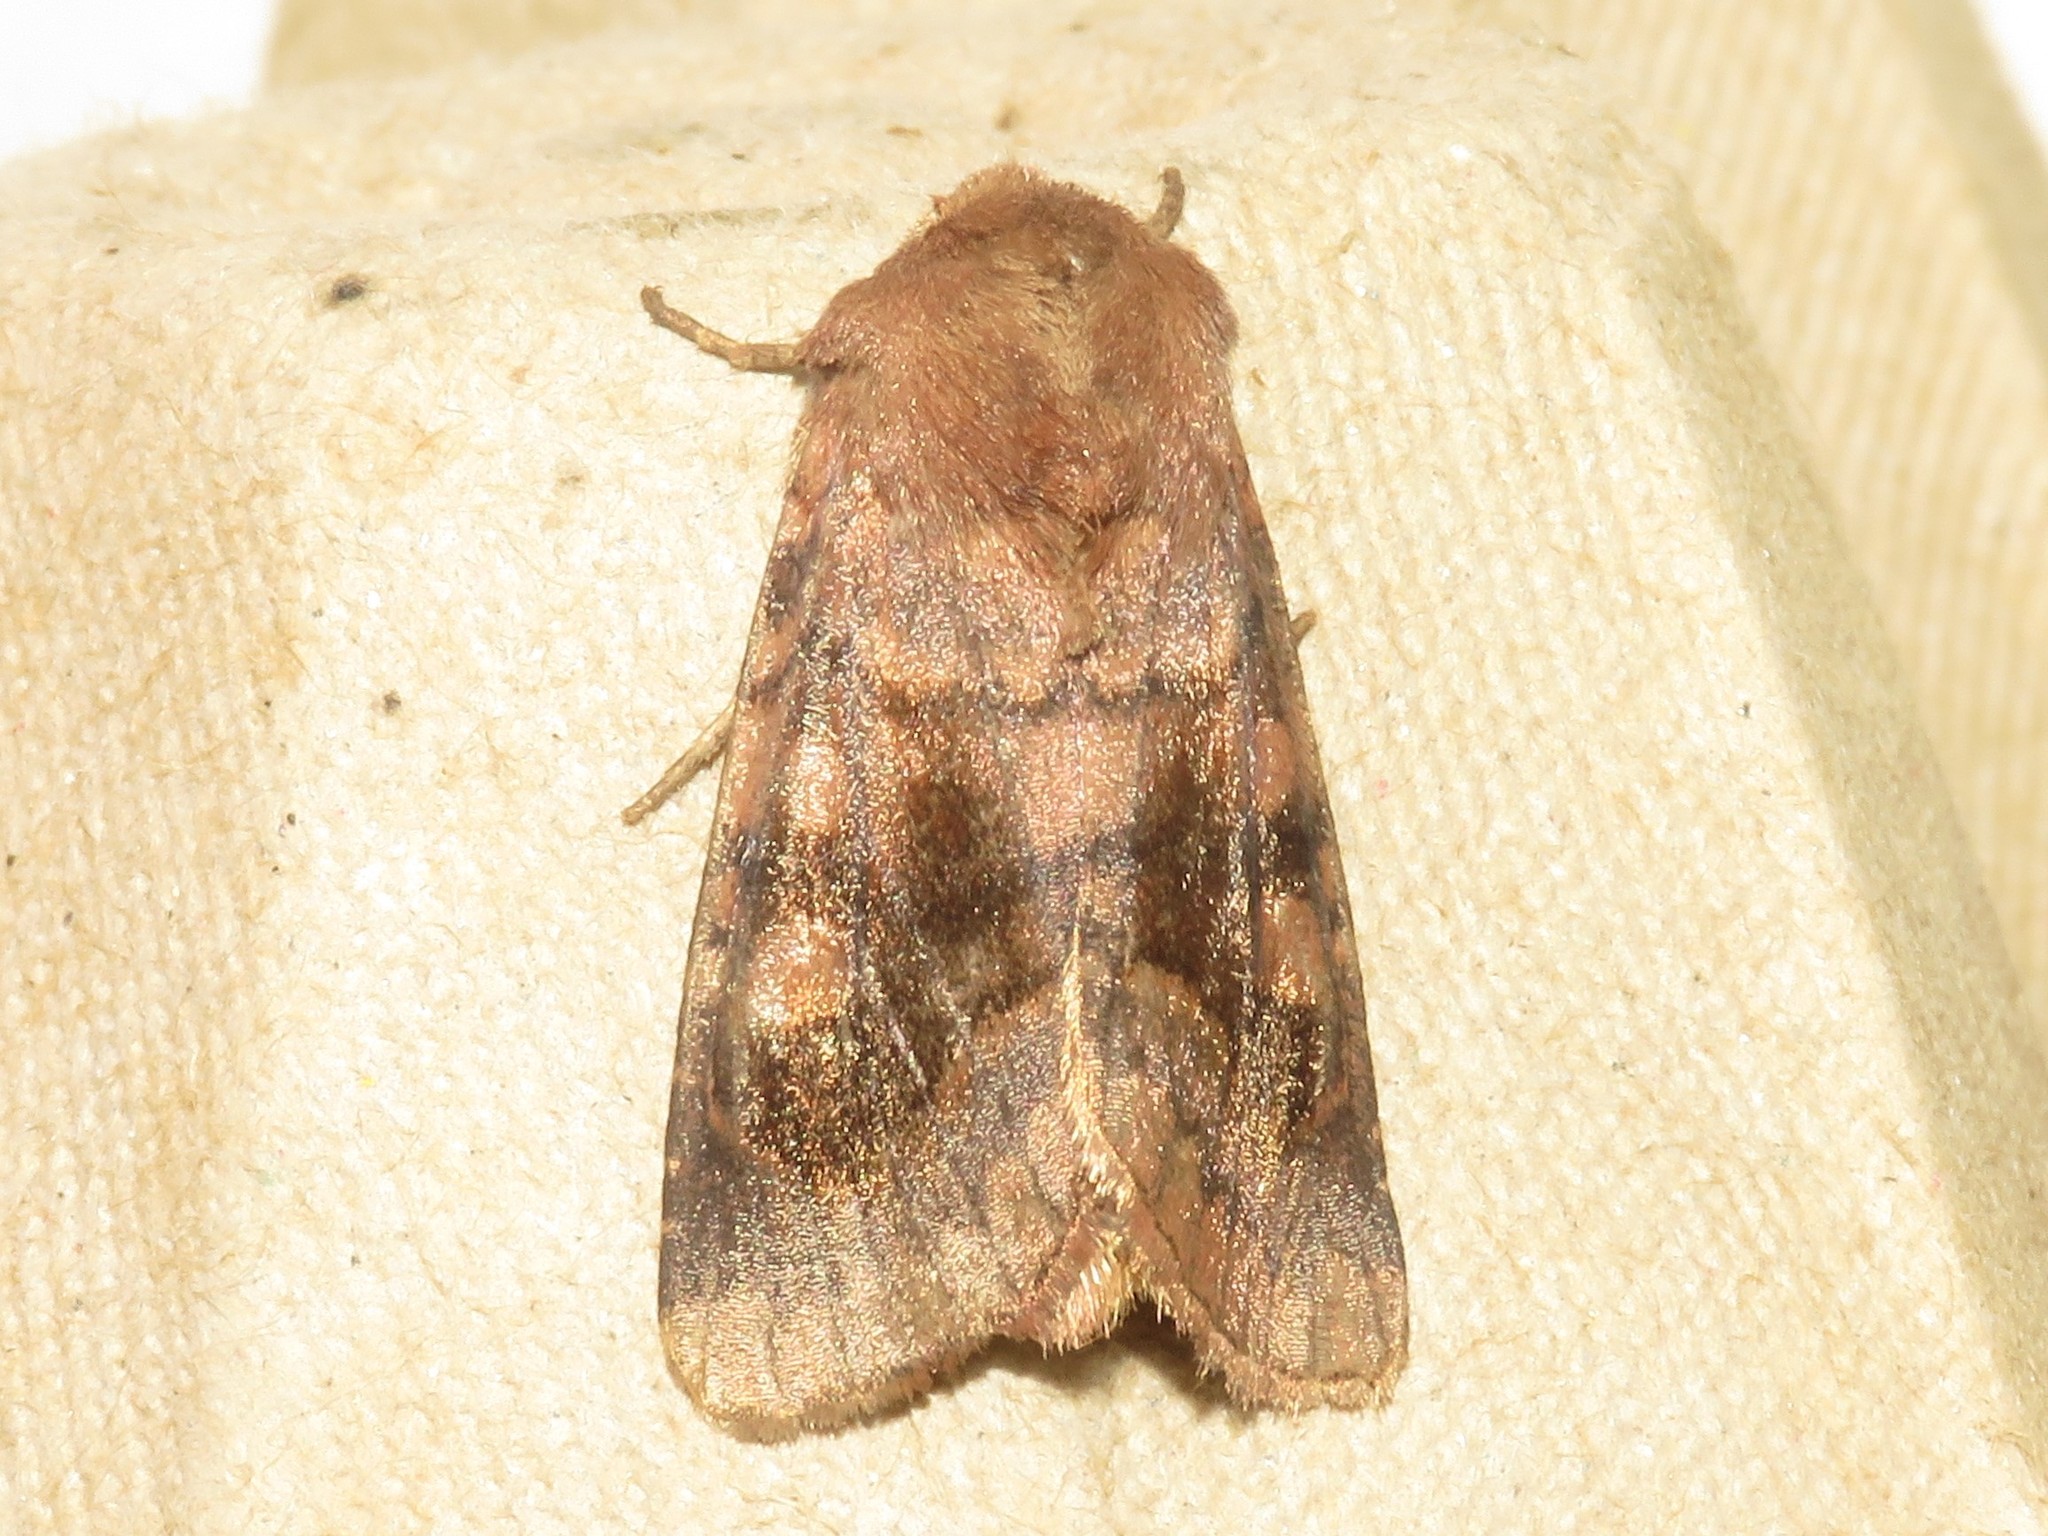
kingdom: Animalia
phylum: Arthropoda
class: Insecta
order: Lepidoptera
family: Noctuidae
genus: Nephelodes
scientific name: Nephelodes minians
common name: Bronzed cutworm
